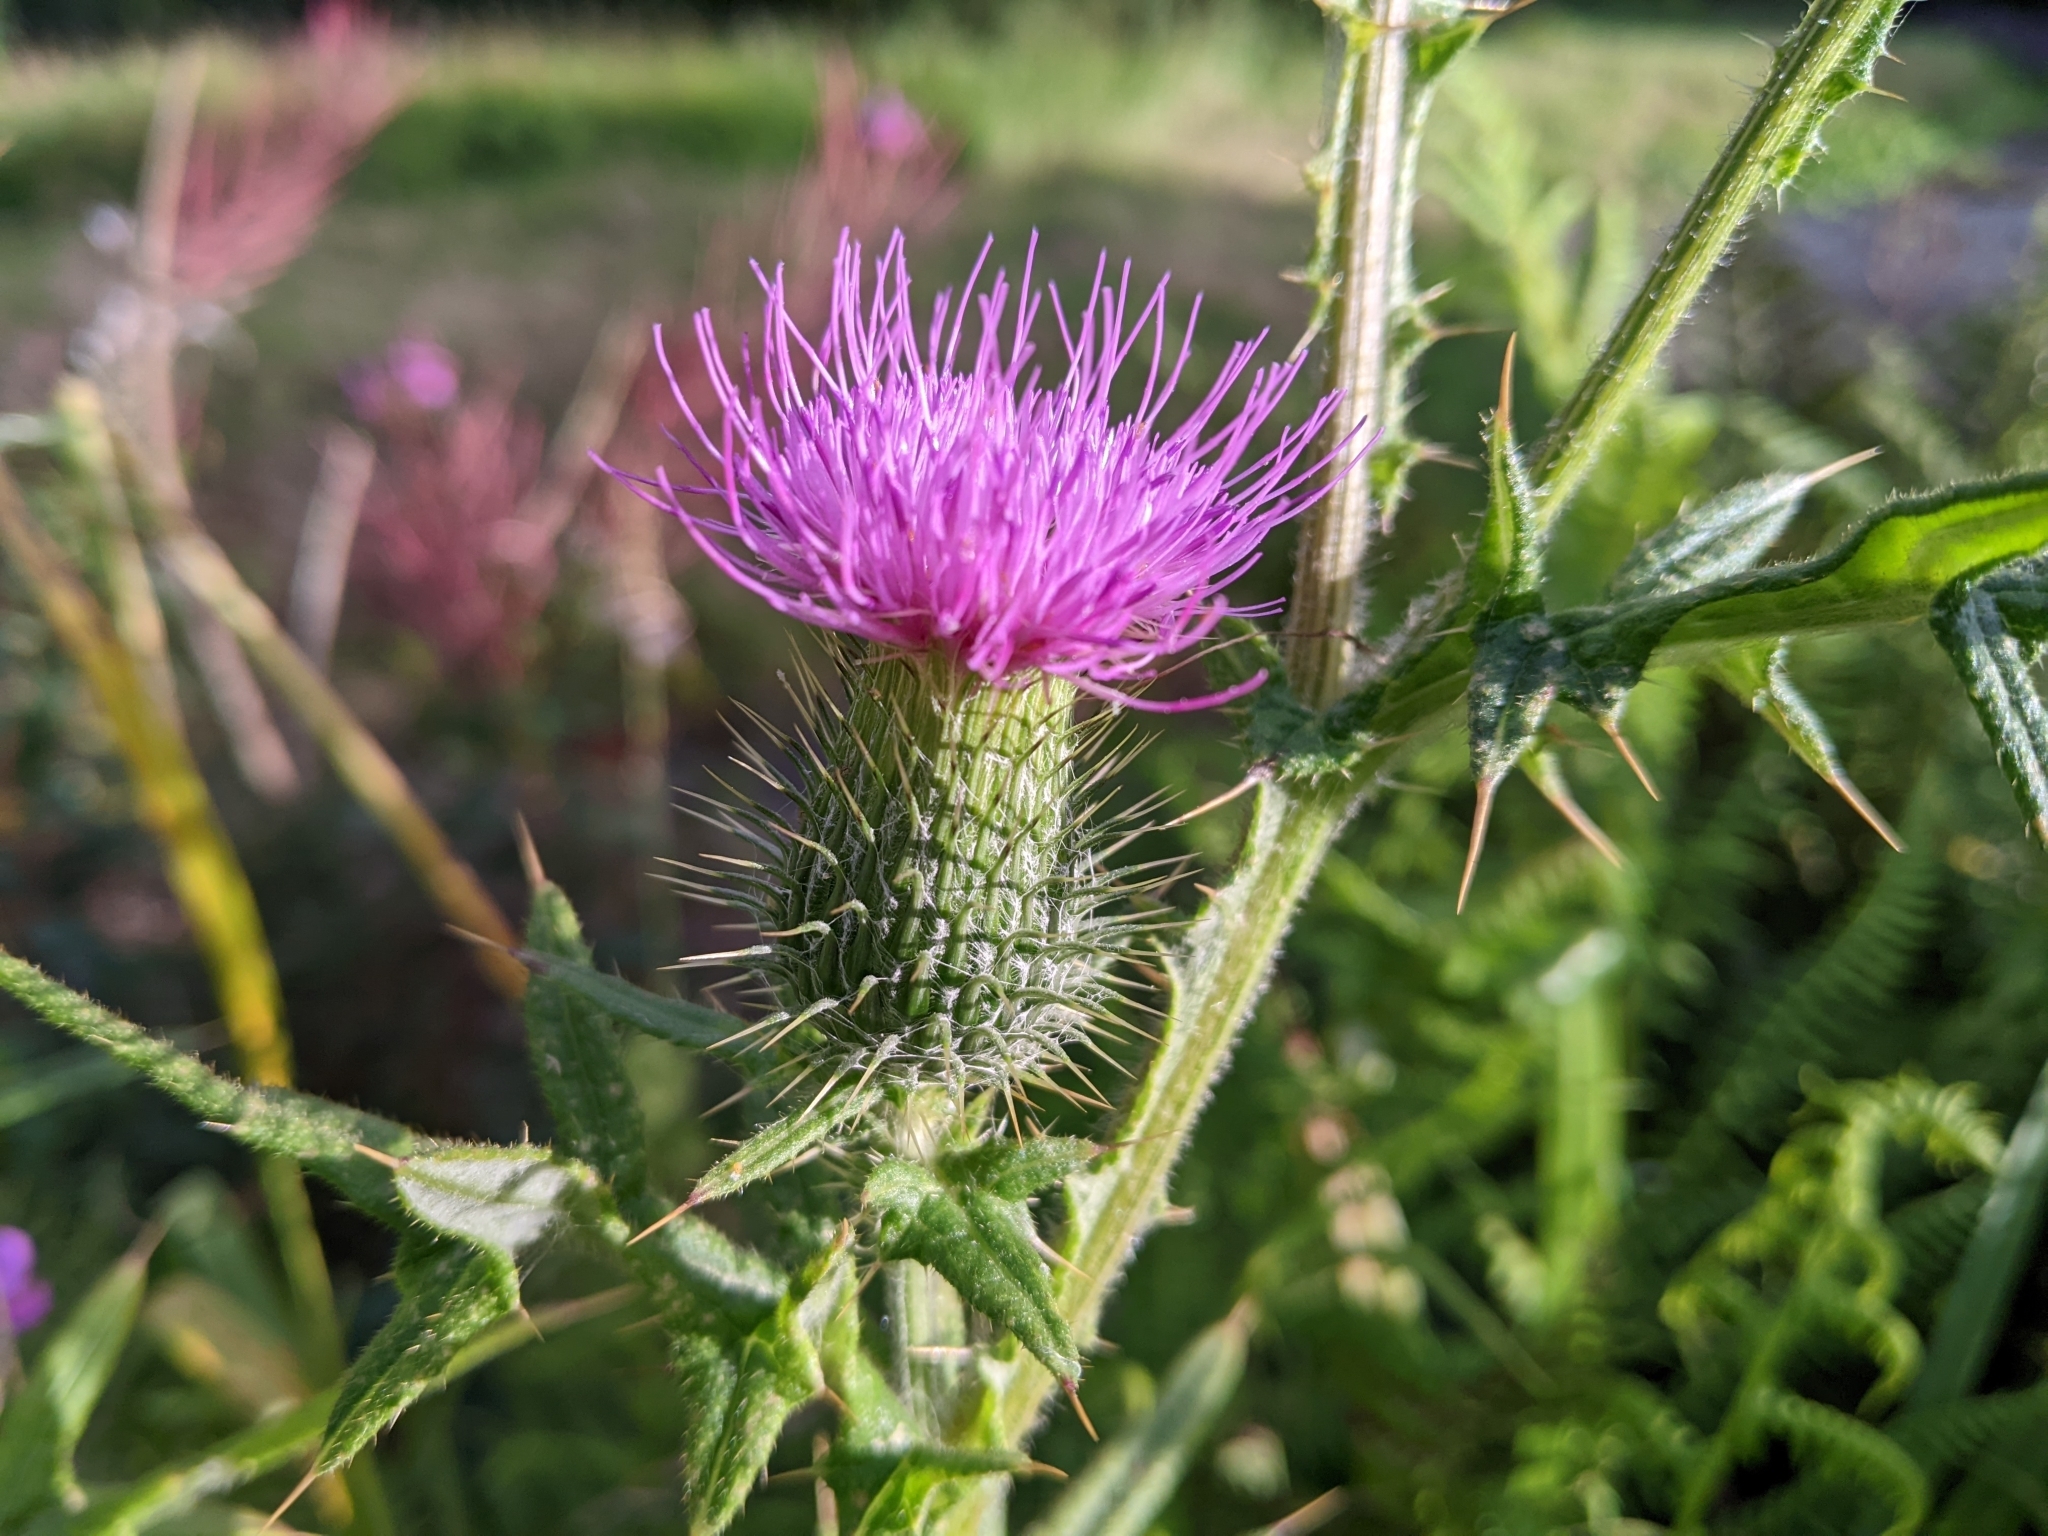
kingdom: Plantae
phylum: Tracheophyta
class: Magnoliopsida
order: Asterales
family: Asteraceae
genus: Cirsium
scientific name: Cirsium vulgare
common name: Bull thistle
